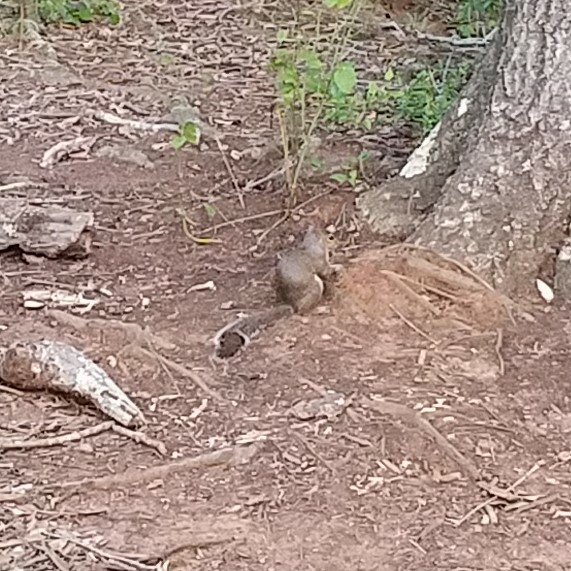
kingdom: Animalia
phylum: Chordata
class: Mammalia
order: Rodentia
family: Sciuridae
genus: Sciurus
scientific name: Sciurus carolinensis
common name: Eastern gray squirrel
